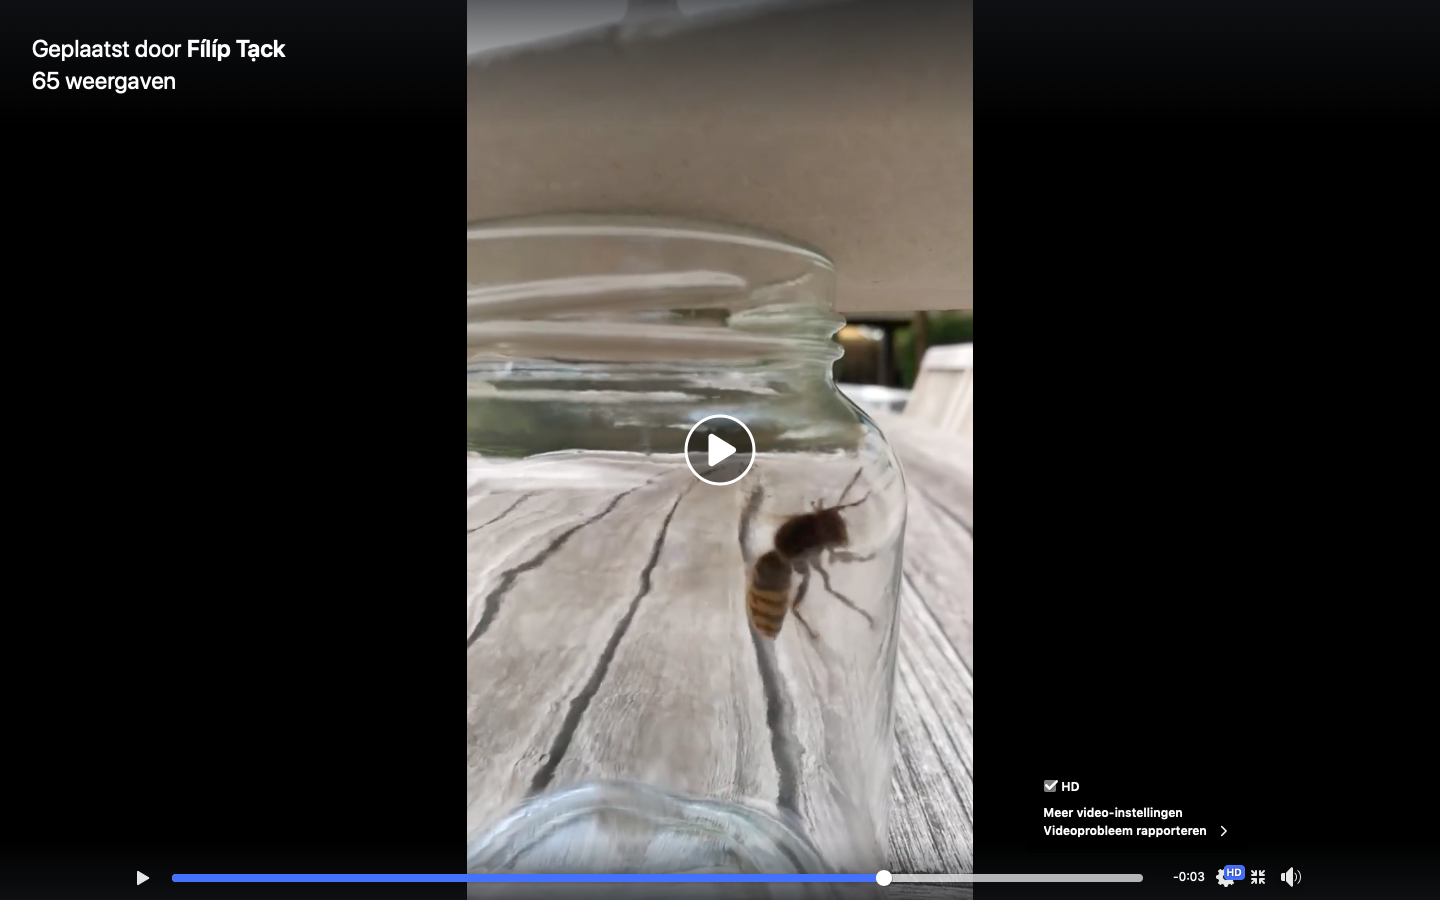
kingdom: Animalia
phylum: Arthropoda
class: Insecta
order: Hymenoptera
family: Vespidae
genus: Vespa
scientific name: Vespa crabro
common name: Hornet
